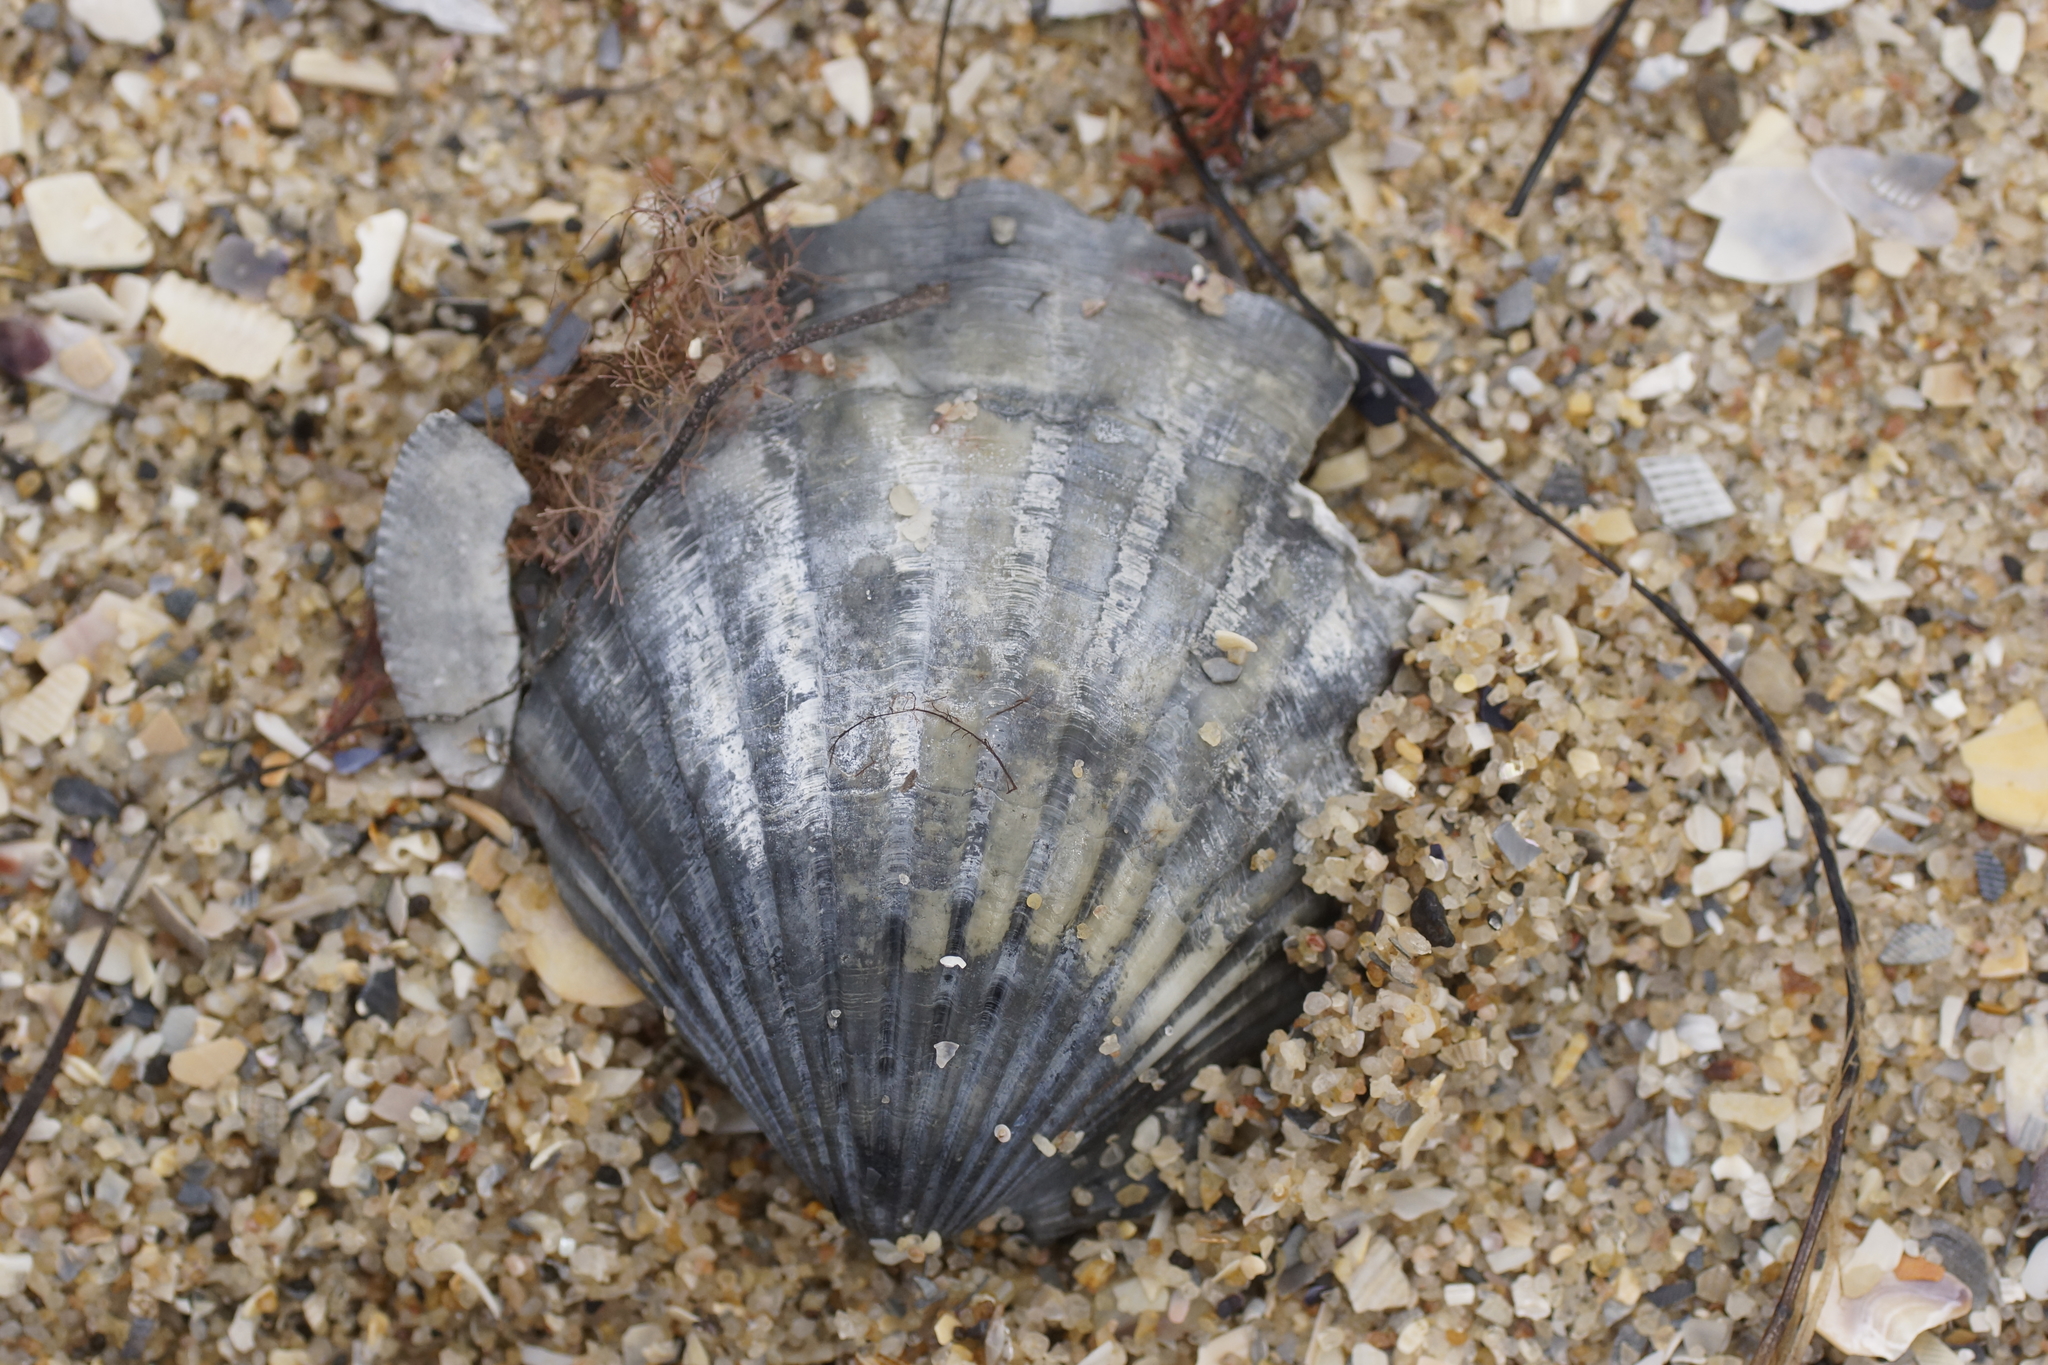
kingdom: Animalia
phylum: Mollusca
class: Bivalvia
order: Pectinida
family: Pectinidae
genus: Pecten
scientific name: Pecten fumatus
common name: Australian scallop
